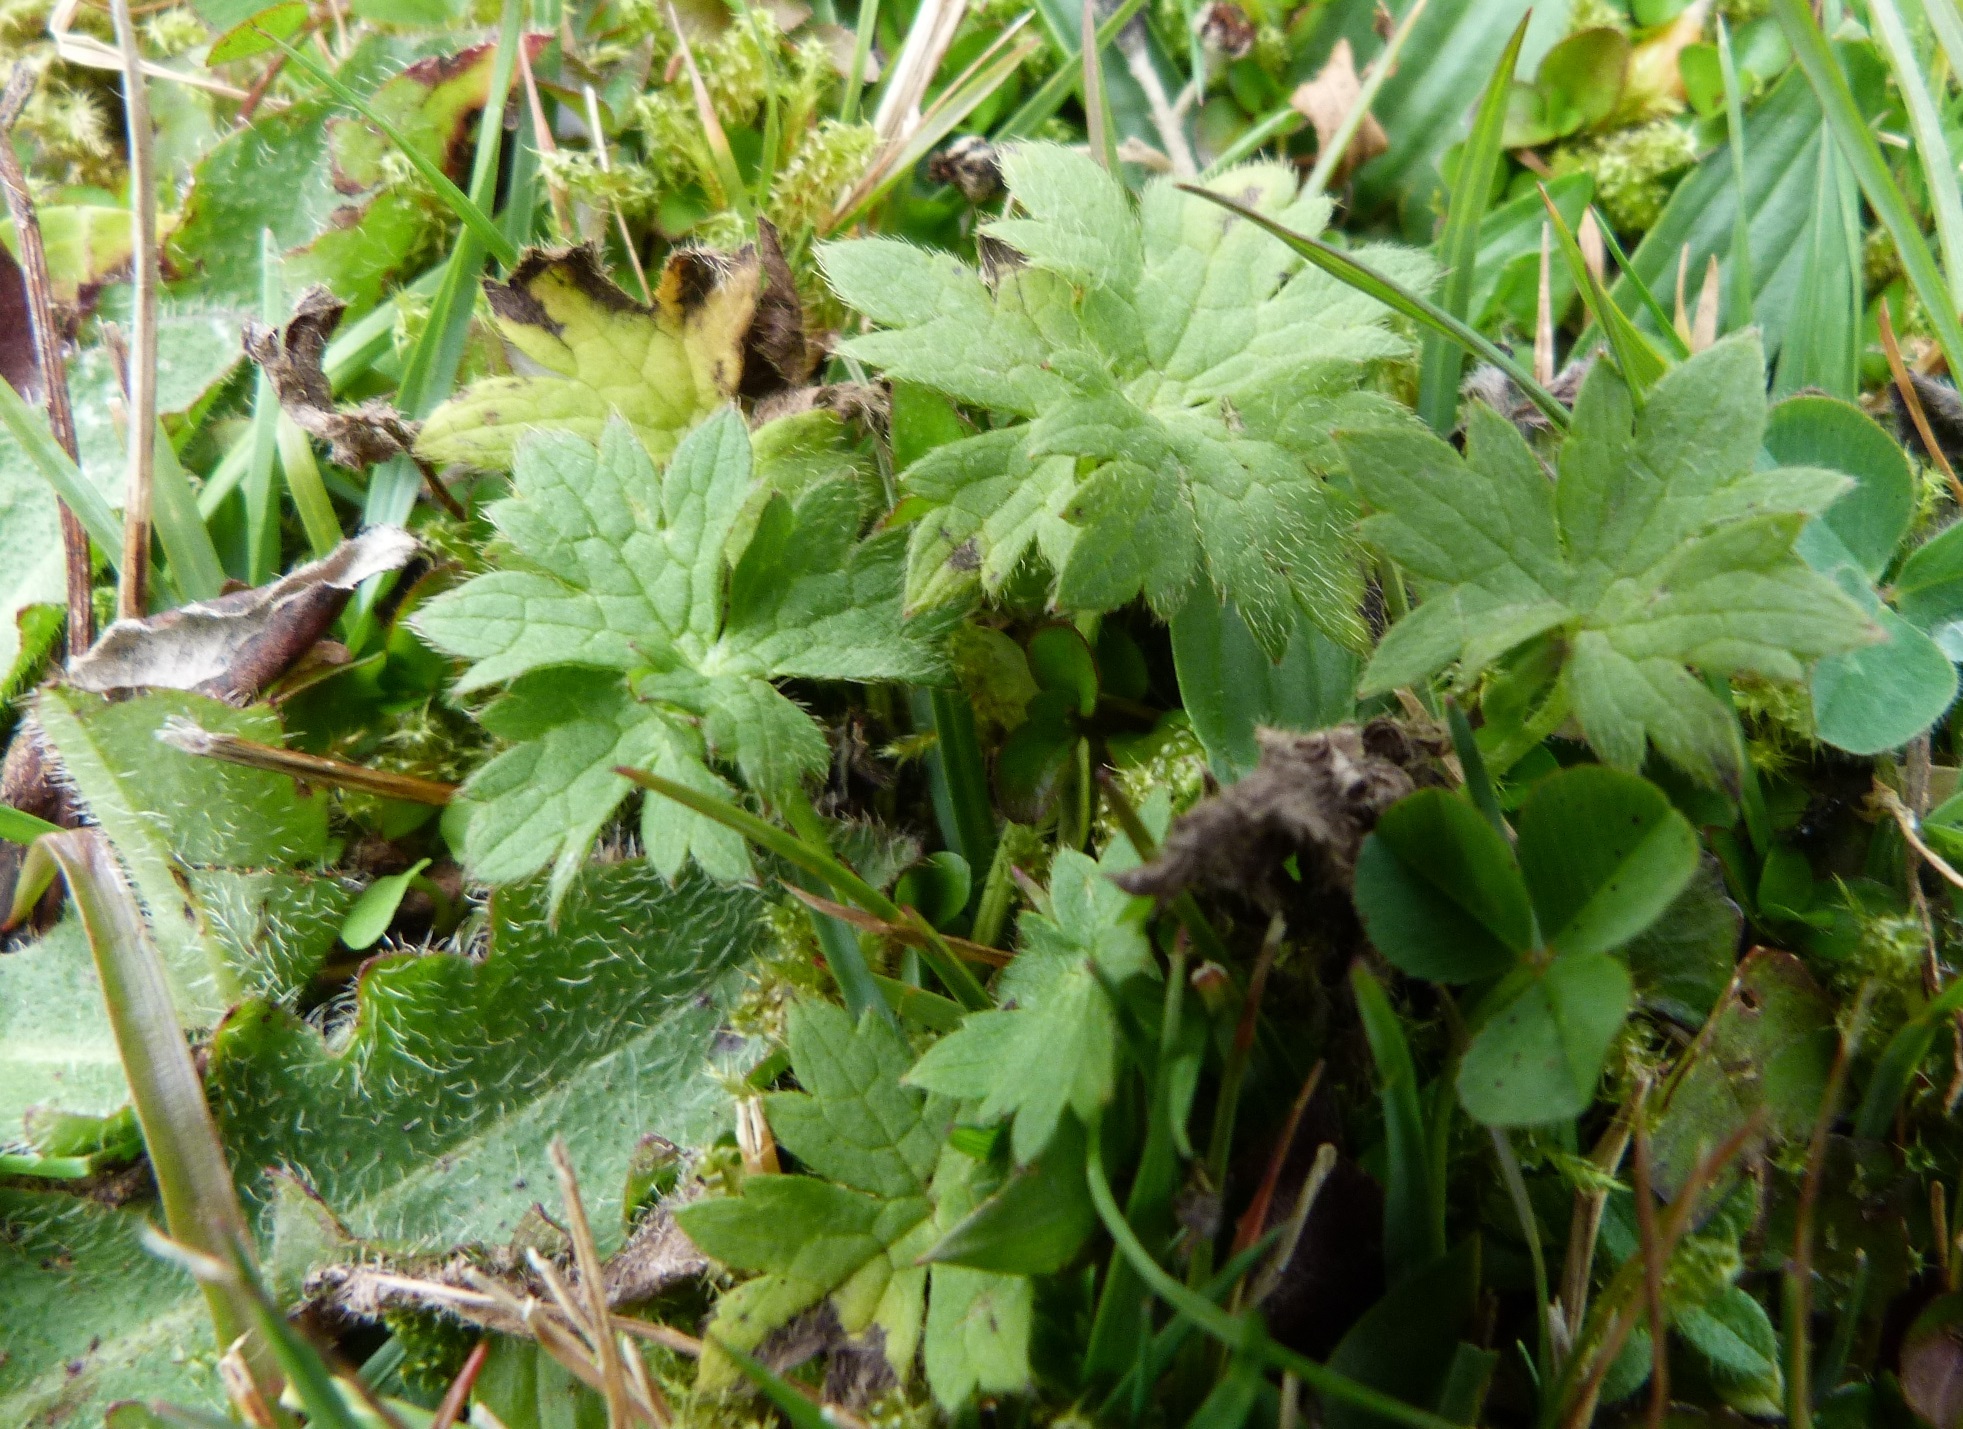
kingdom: Plantae
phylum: Tracheophyta
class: Magnoliopsida
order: Ranunculales
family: Ranunculaceae
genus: Ranunculus
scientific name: Ranunculus repens
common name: Creeping buttercup
